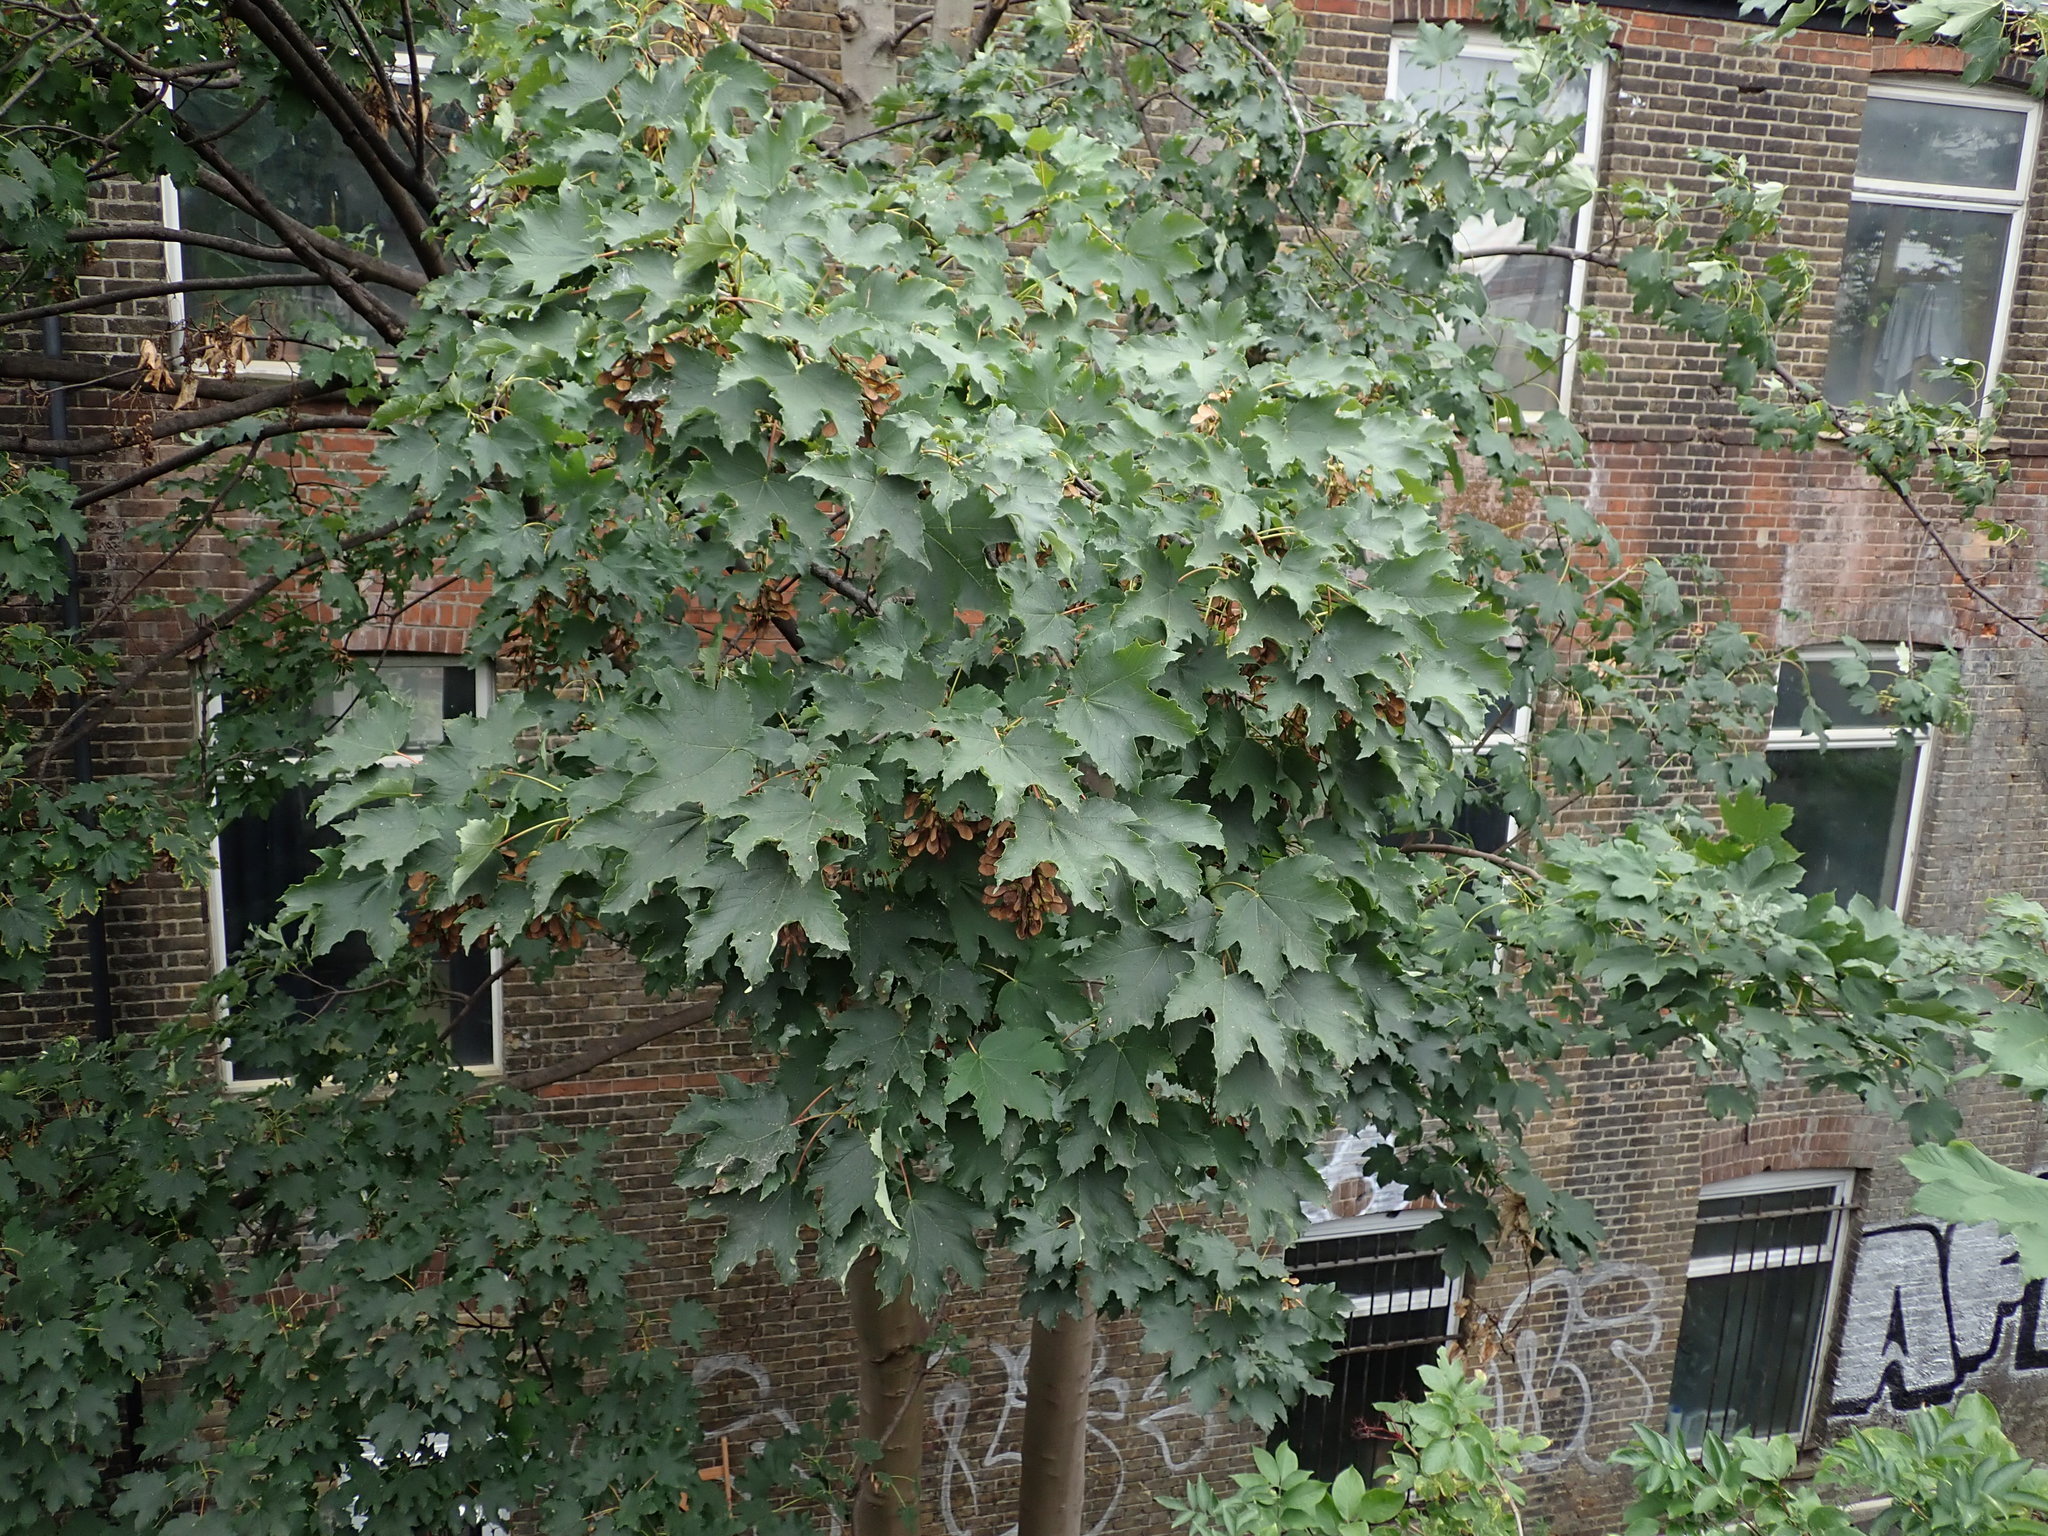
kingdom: Plantae
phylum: Tracheophyta
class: Magnoliopsida
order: Sapindales
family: Sapindaceae
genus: Acer
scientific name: Acer pseudoplatanus
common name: Sycamore
